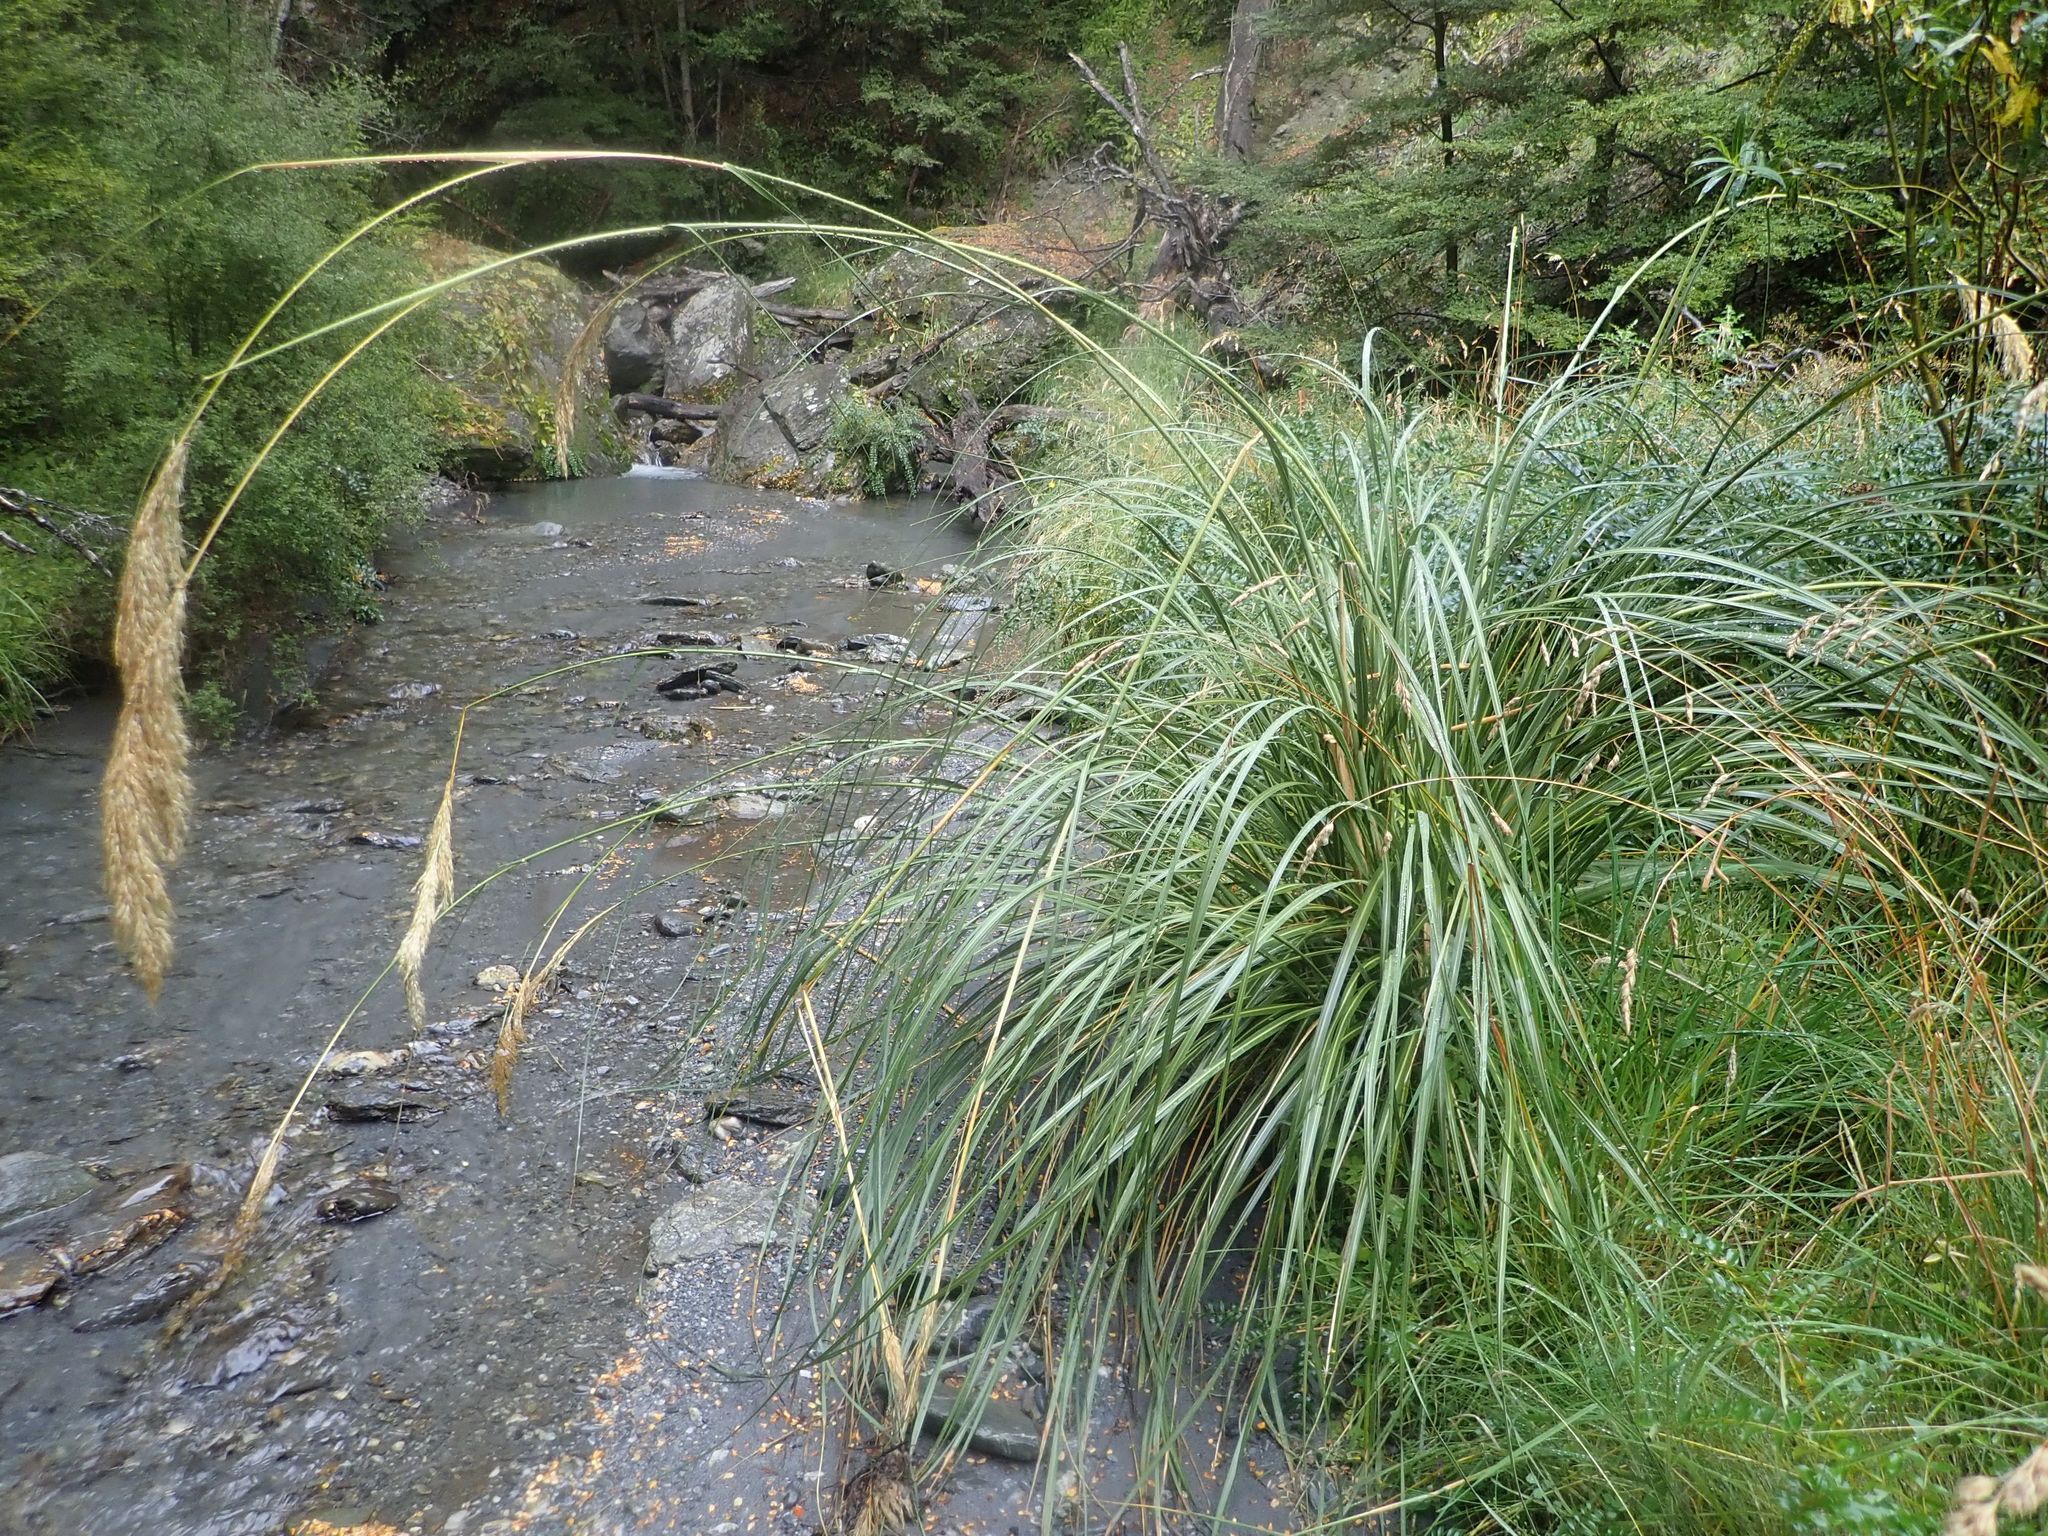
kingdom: Plantae
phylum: Tracheophyta
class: Liliopsida
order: Poales
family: Poaceae
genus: Austroderia
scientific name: Austroderia richardii
